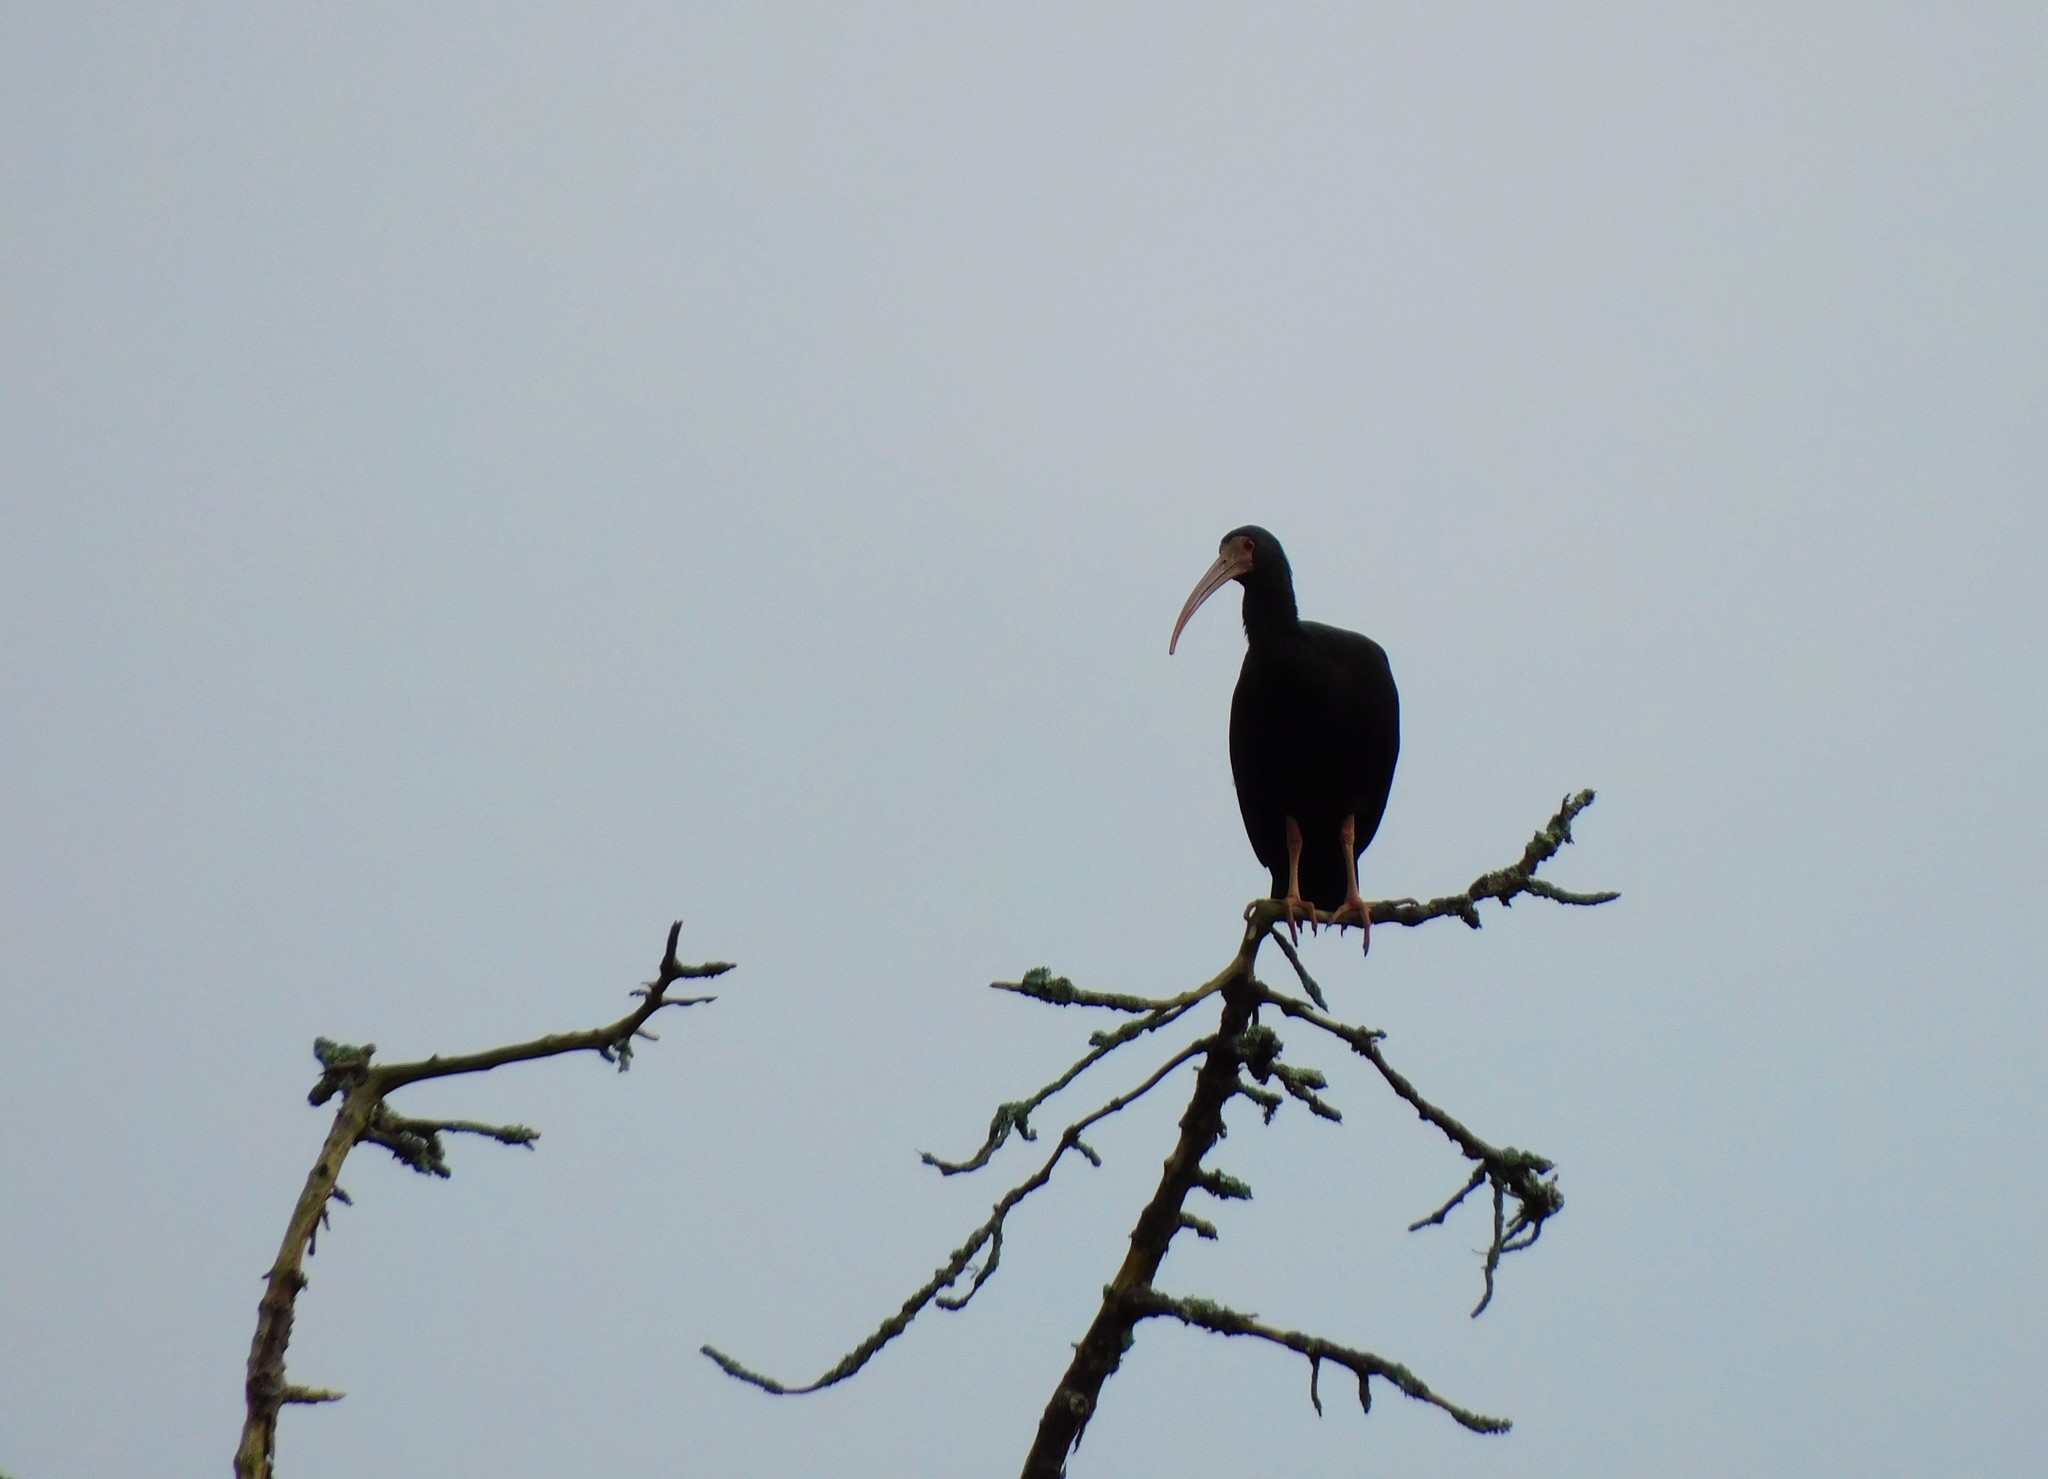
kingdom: Animalia
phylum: Chordata
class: Aves
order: Pelecaniformes
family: Threskiornithidae
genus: Phimosus
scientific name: Phimosus infuscatus
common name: Bare-faced ibis
